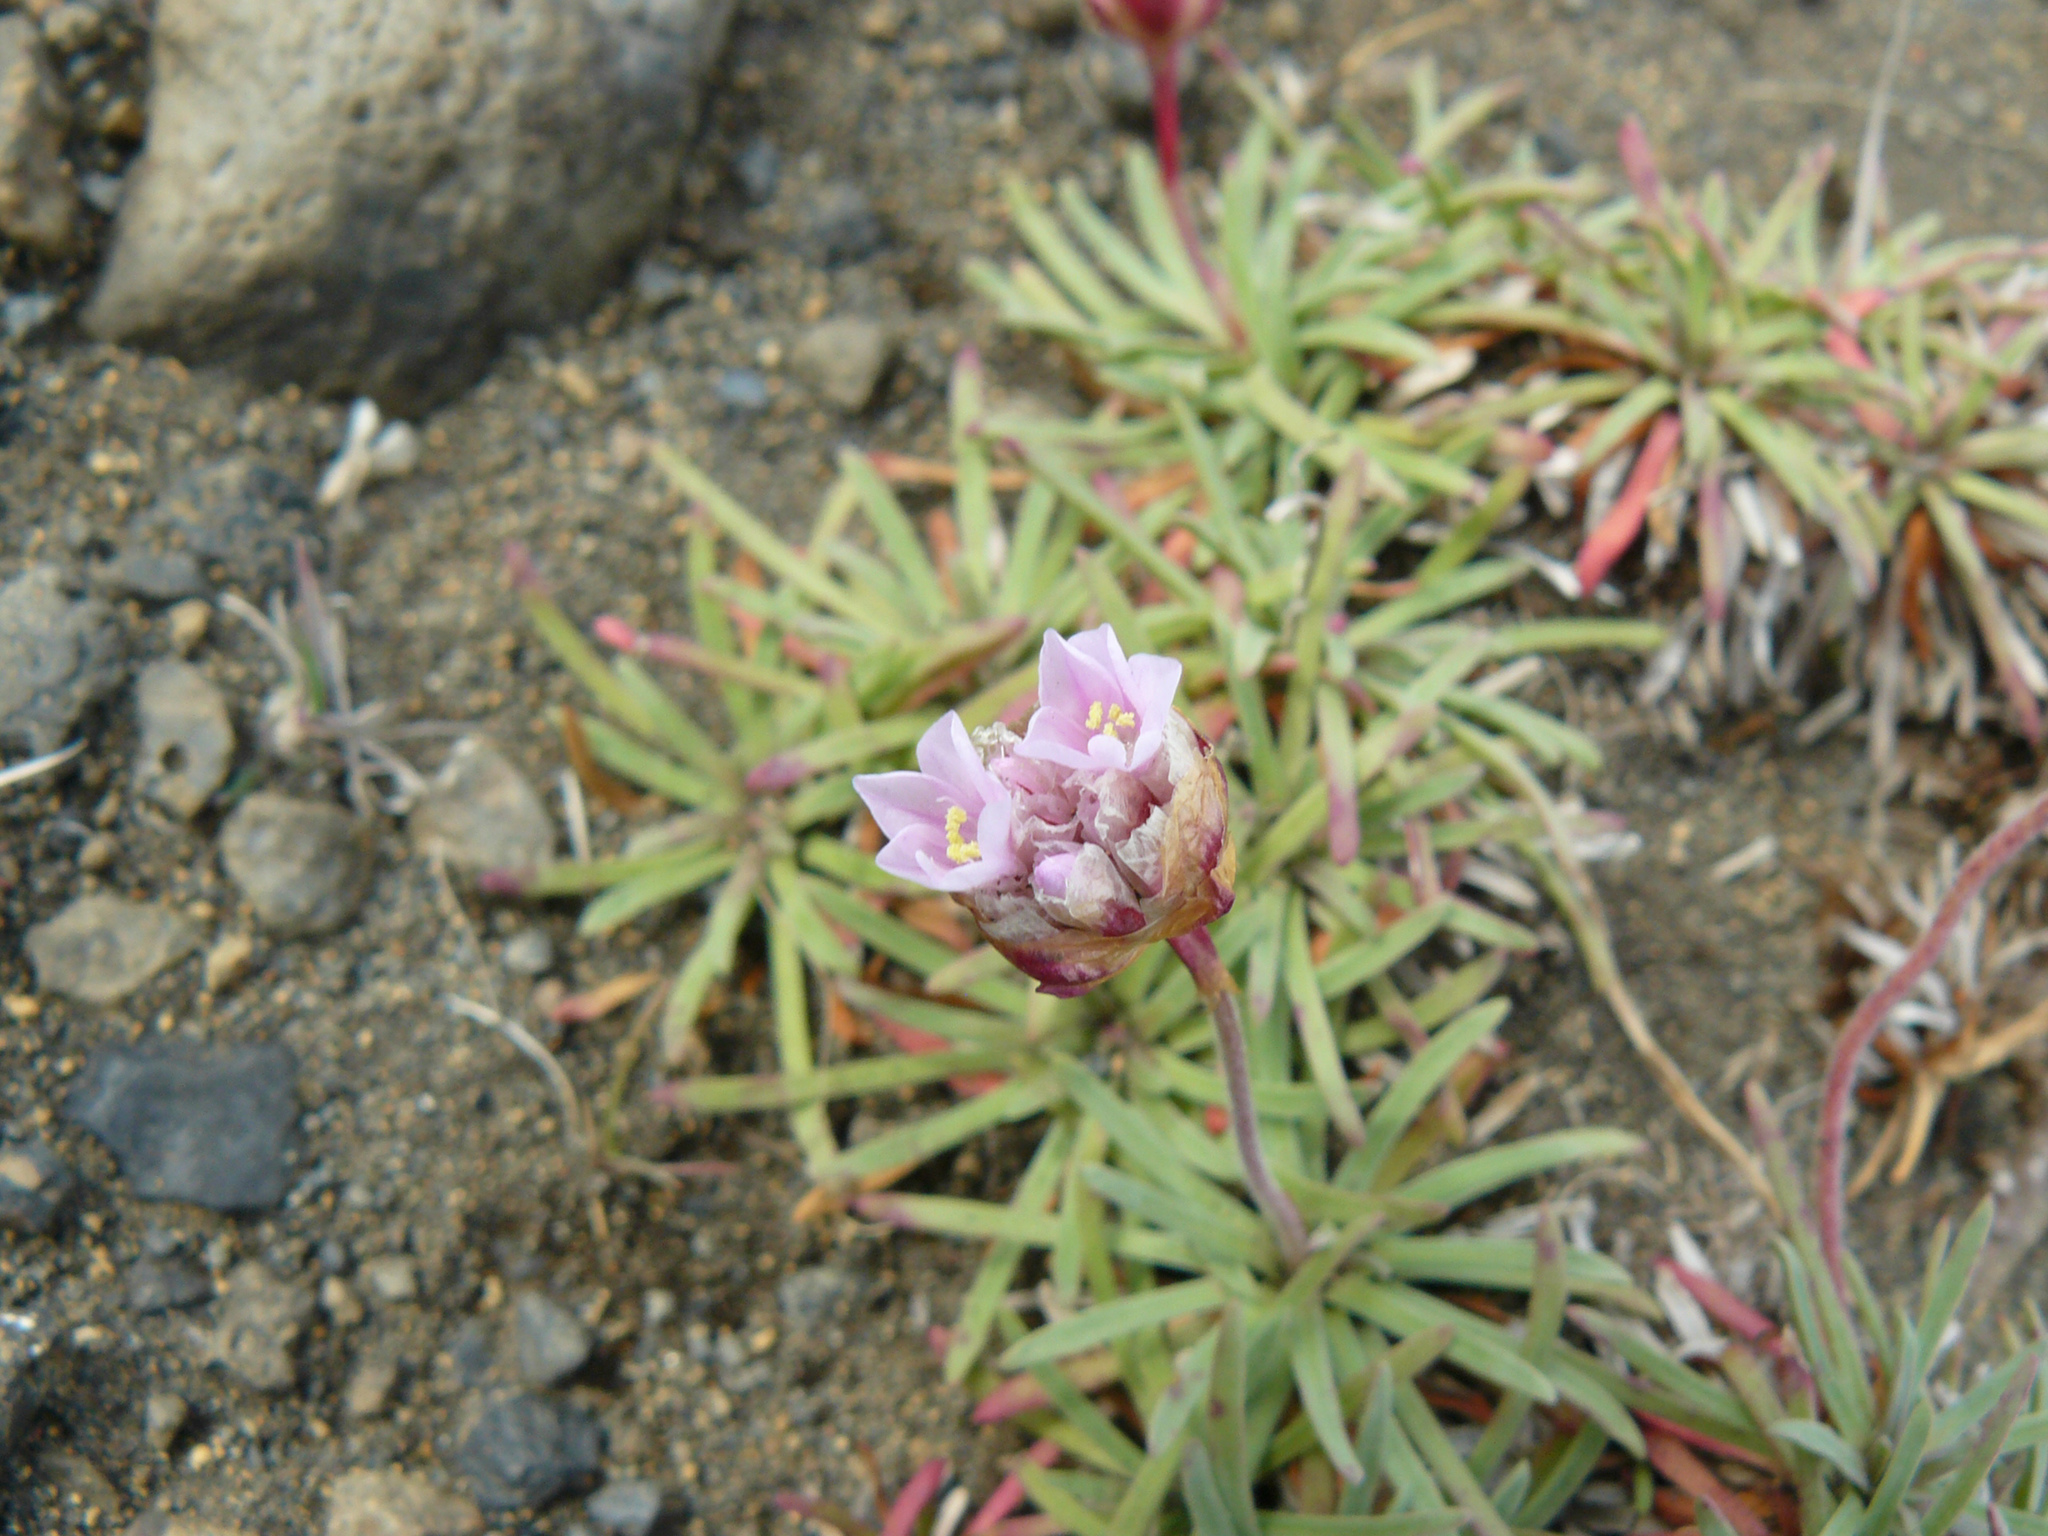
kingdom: Plantae
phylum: Tracheophyta
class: Magnoliopsida
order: Caryophyllales
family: Plumbaginaceae
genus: Armeria
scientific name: Armeria maritima
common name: Thrift
